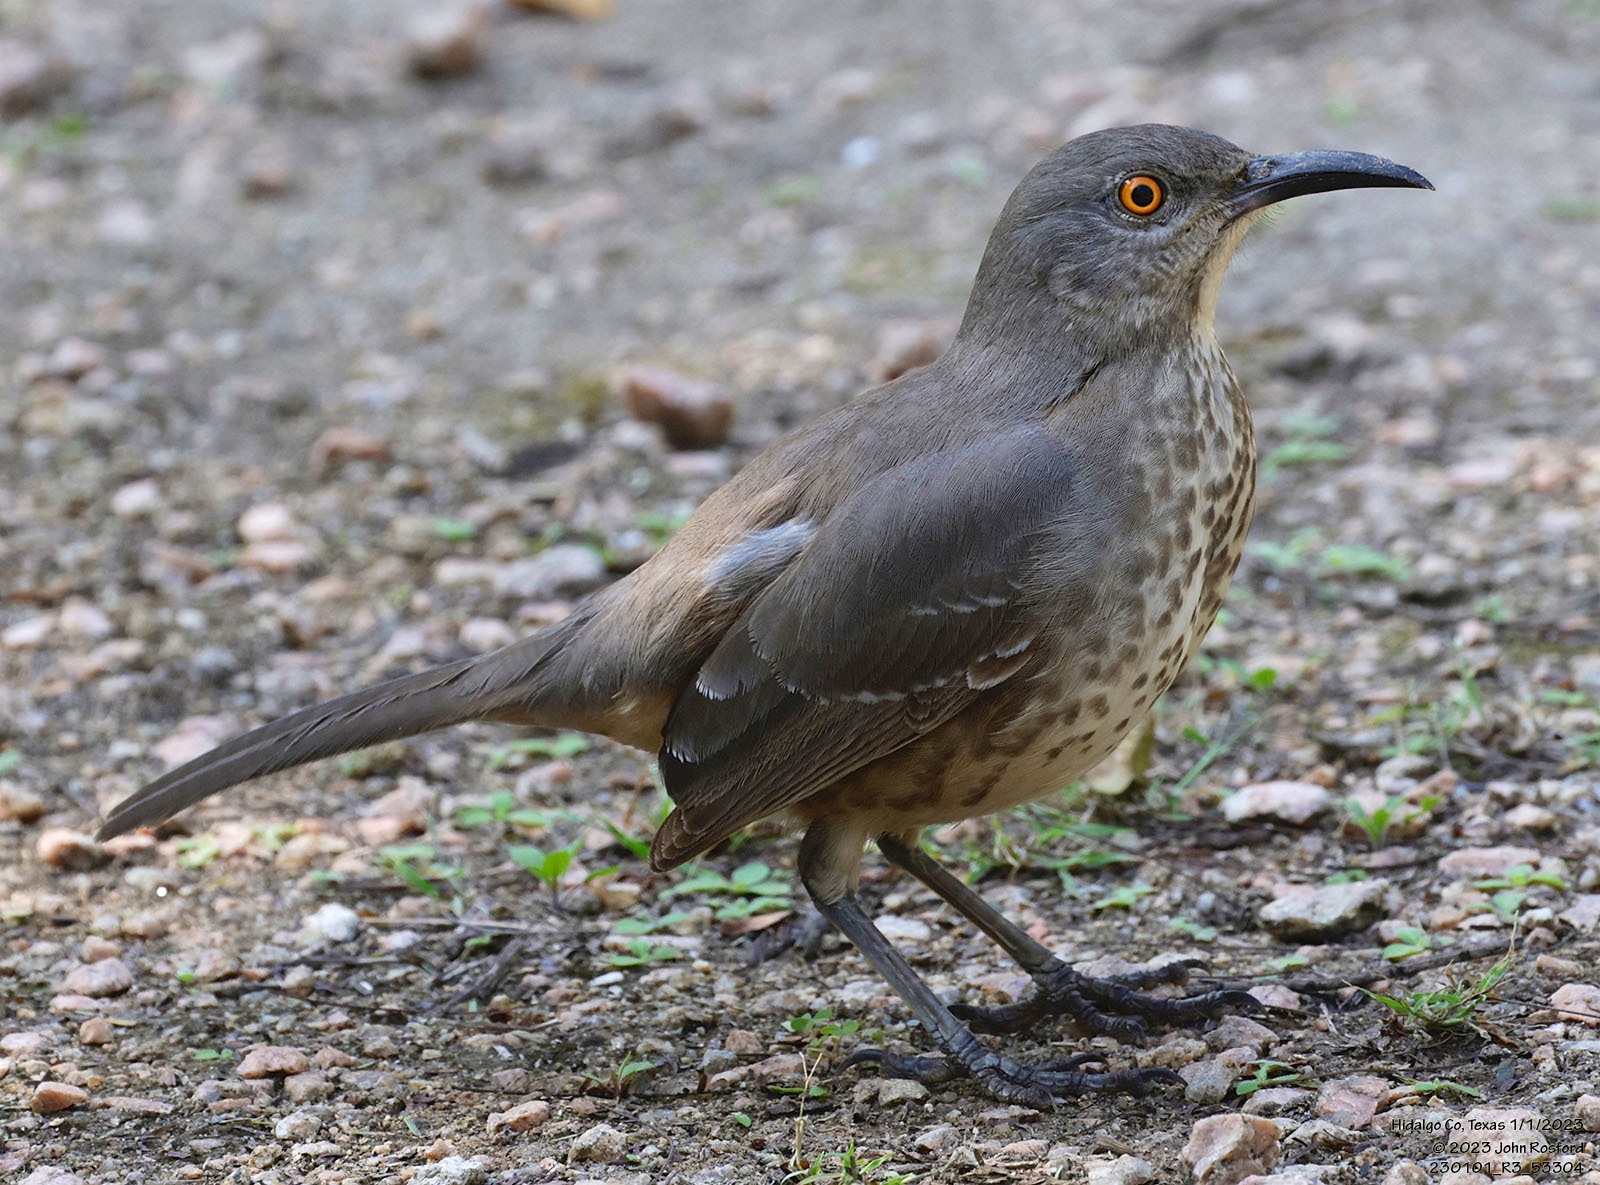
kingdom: Animalia
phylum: Chordata
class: Aves
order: Passeriformes
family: Mimidae
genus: Toxostoma
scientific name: Toxostoma curvirostre
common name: Curve-billed thrasher
